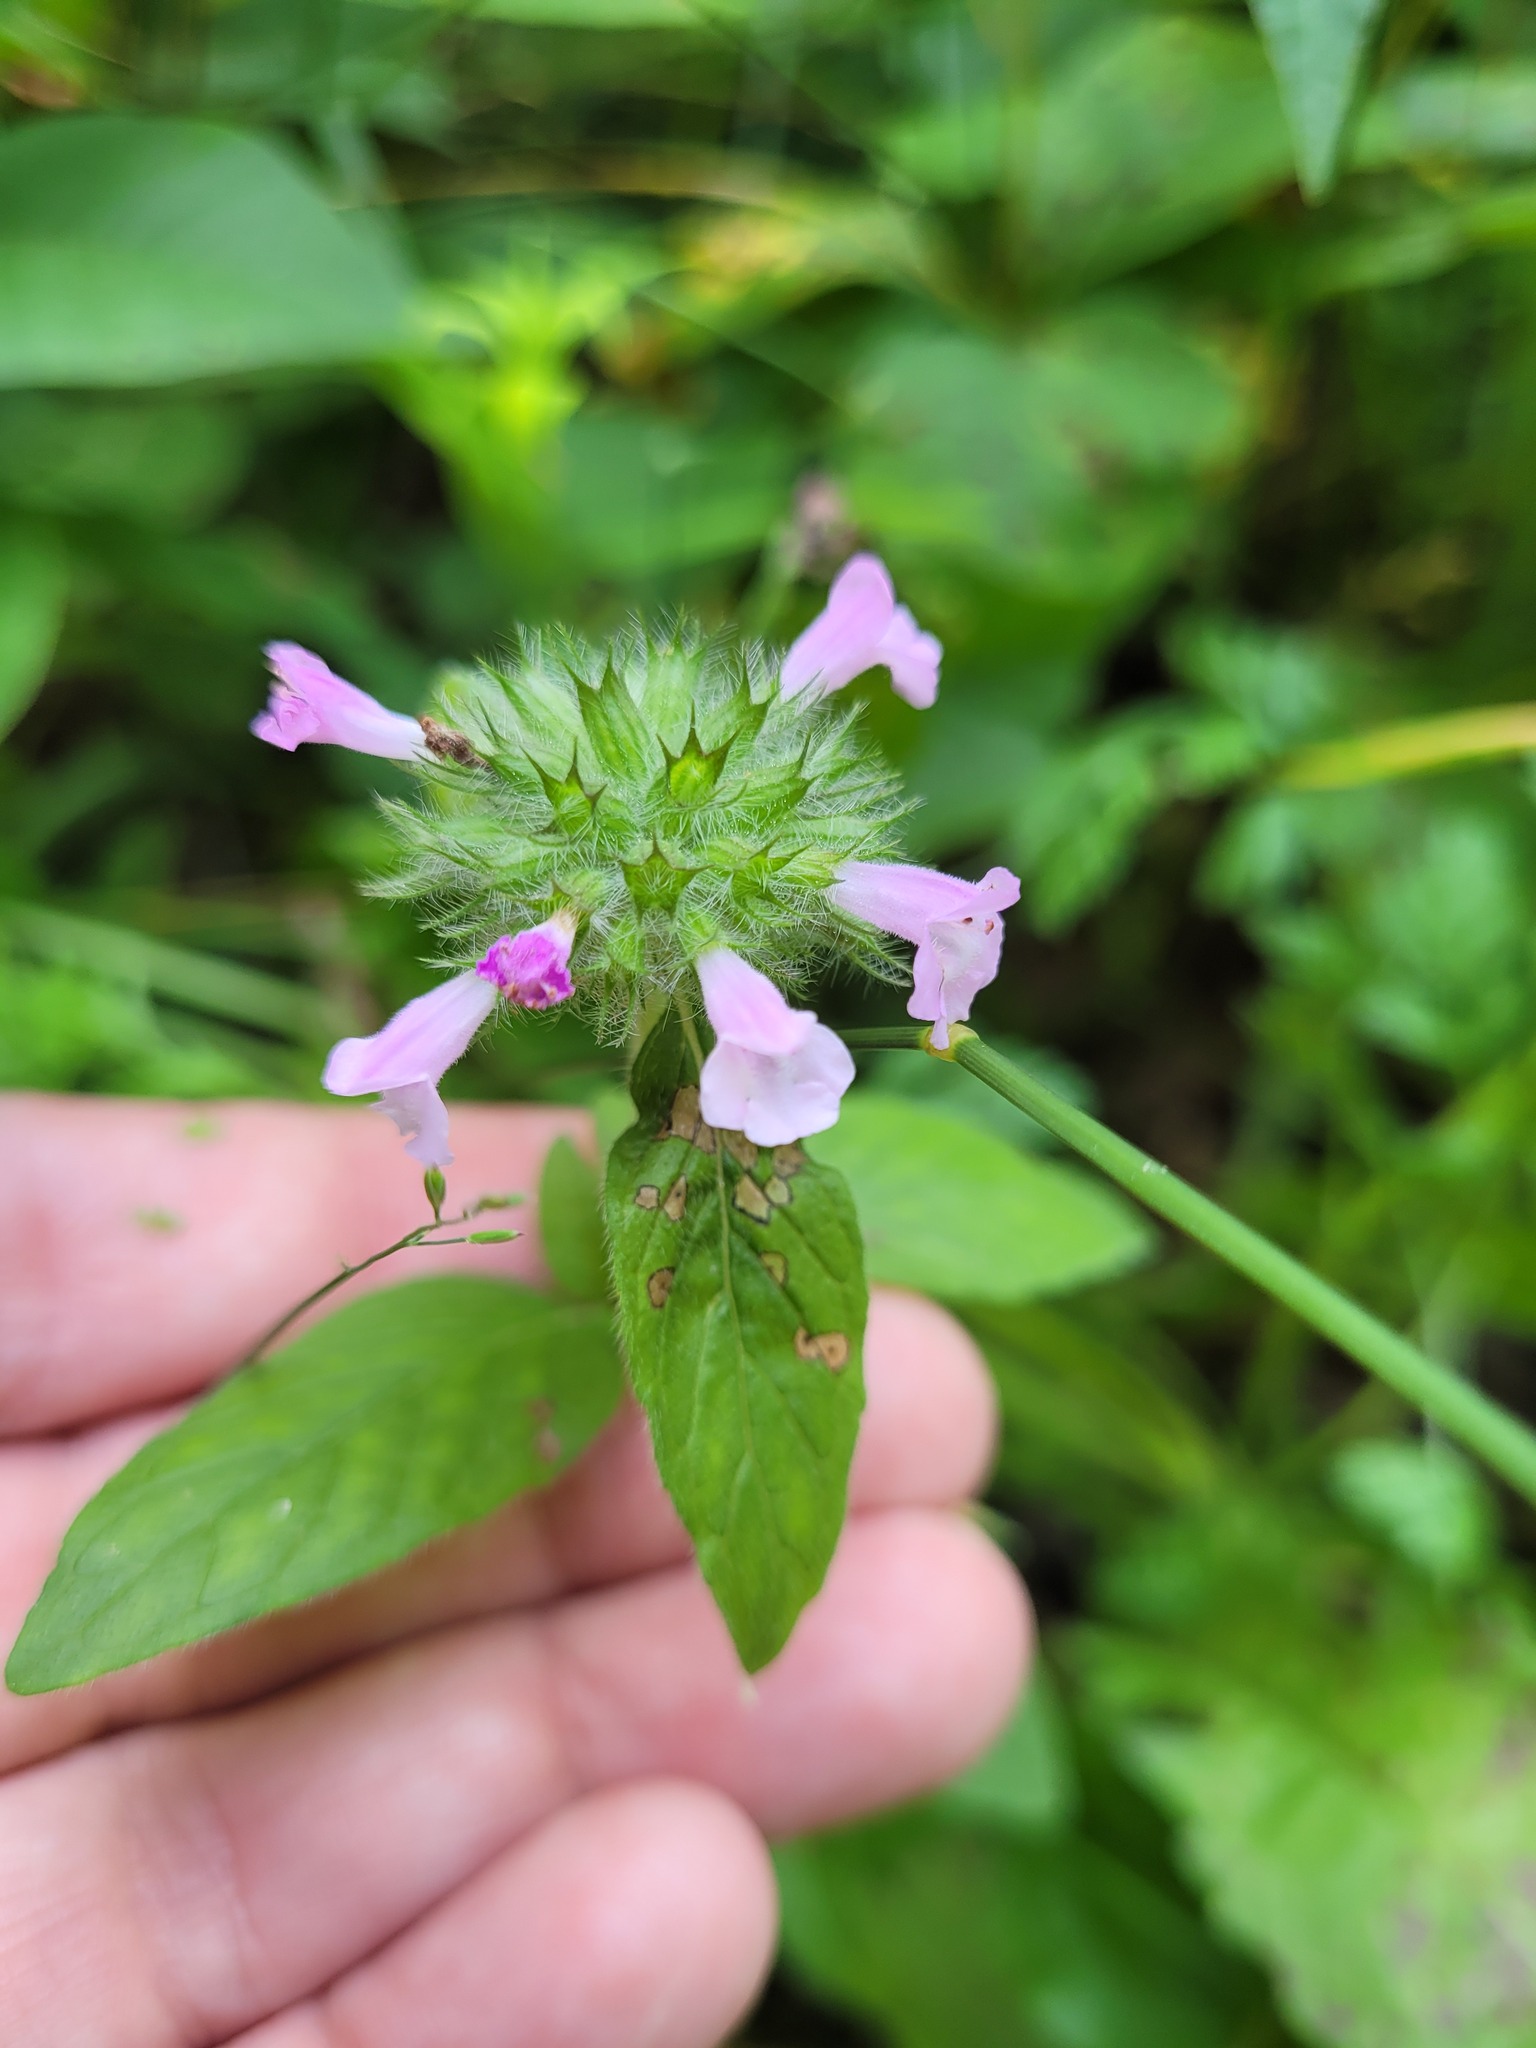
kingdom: Plantae
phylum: Tracheophyta
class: Magnoliopsida
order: Lamiales
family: Lamiaceae
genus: Clinopodium
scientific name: Clinopodium vulgare
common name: Wild basil
